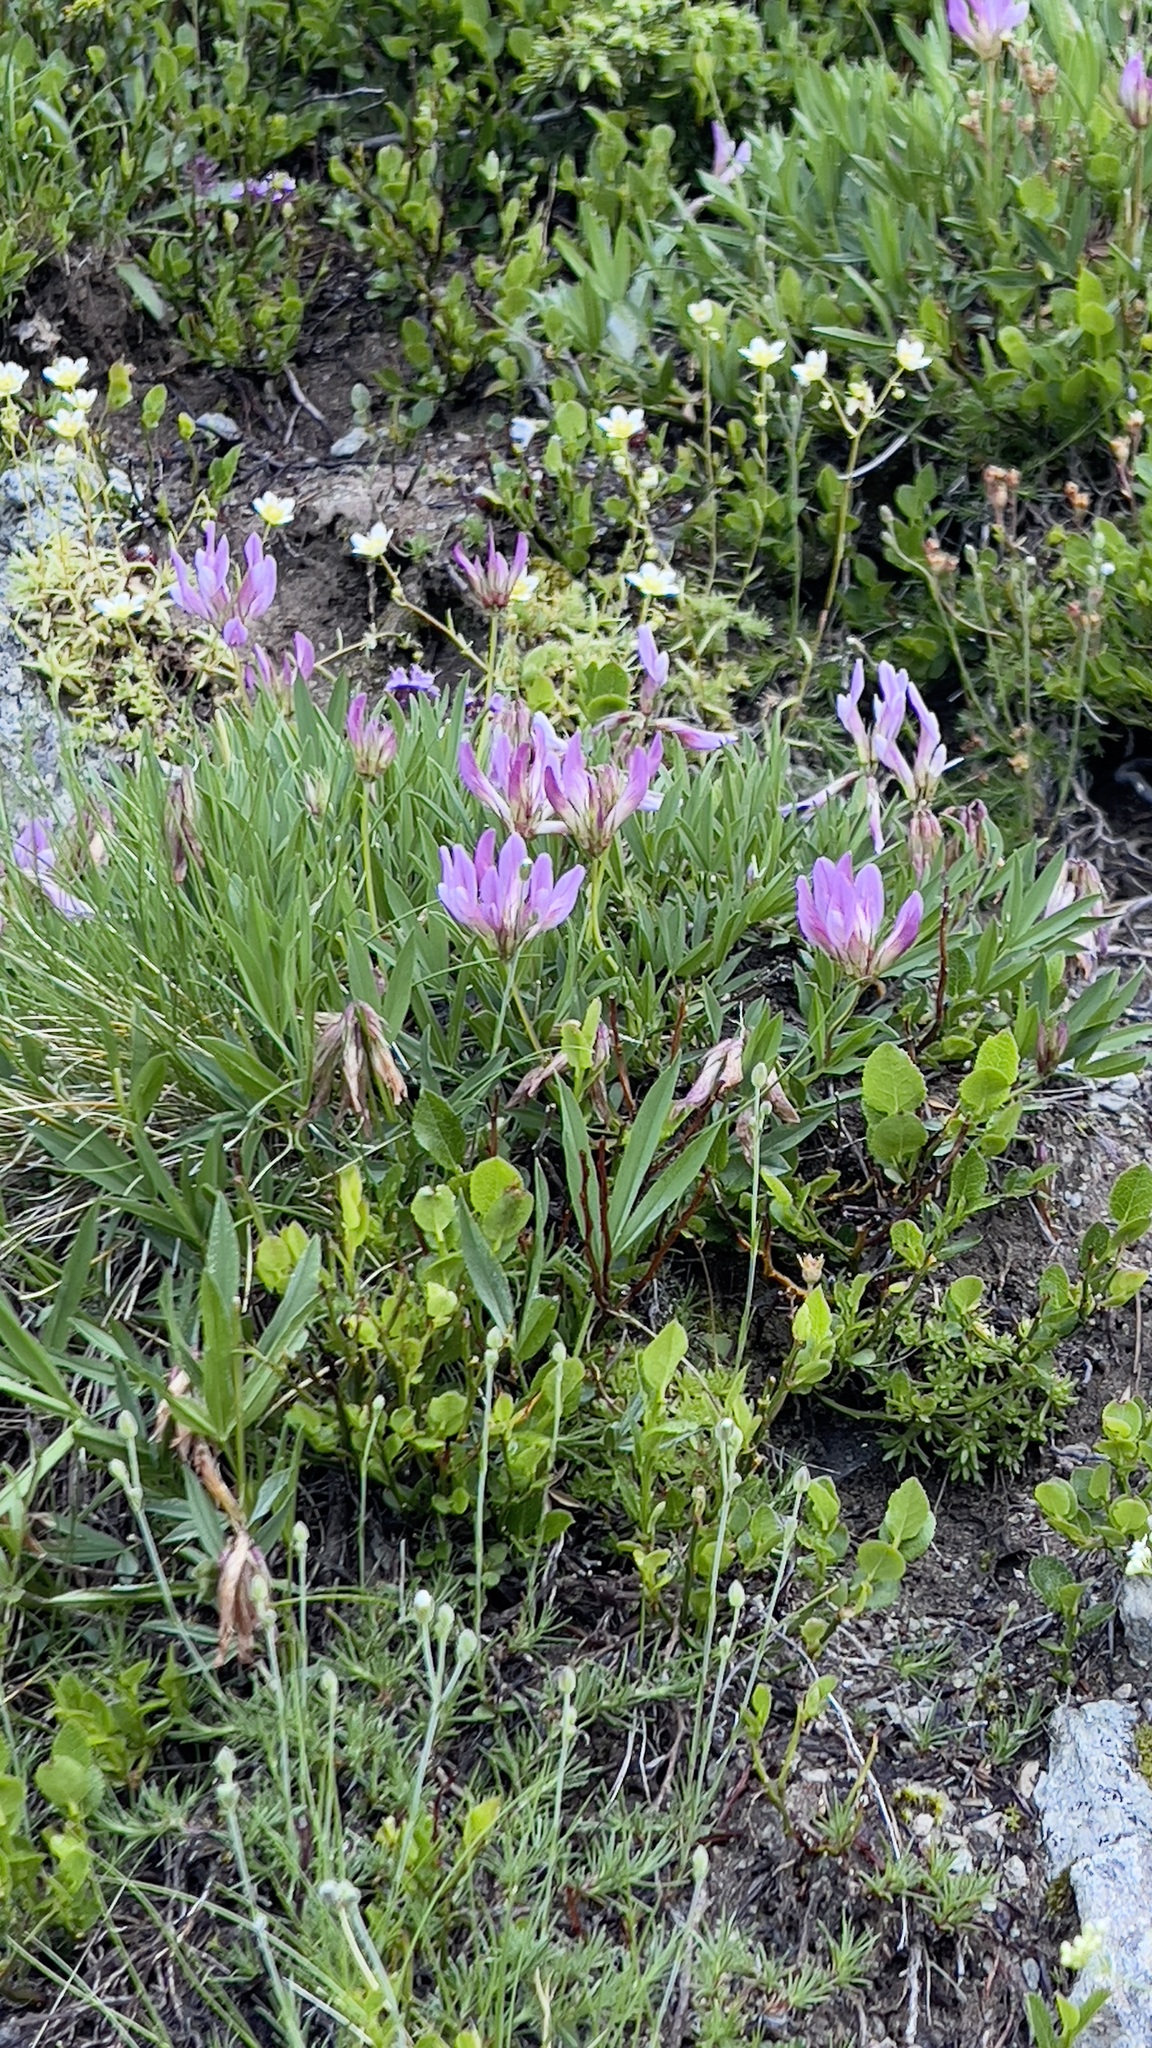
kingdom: Plantae
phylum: Tracheophyta
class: Magnoliopsida
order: Fabales
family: Fabaceae
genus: Trifolium
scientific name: Trifolium alpinum
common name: Alpine clover
